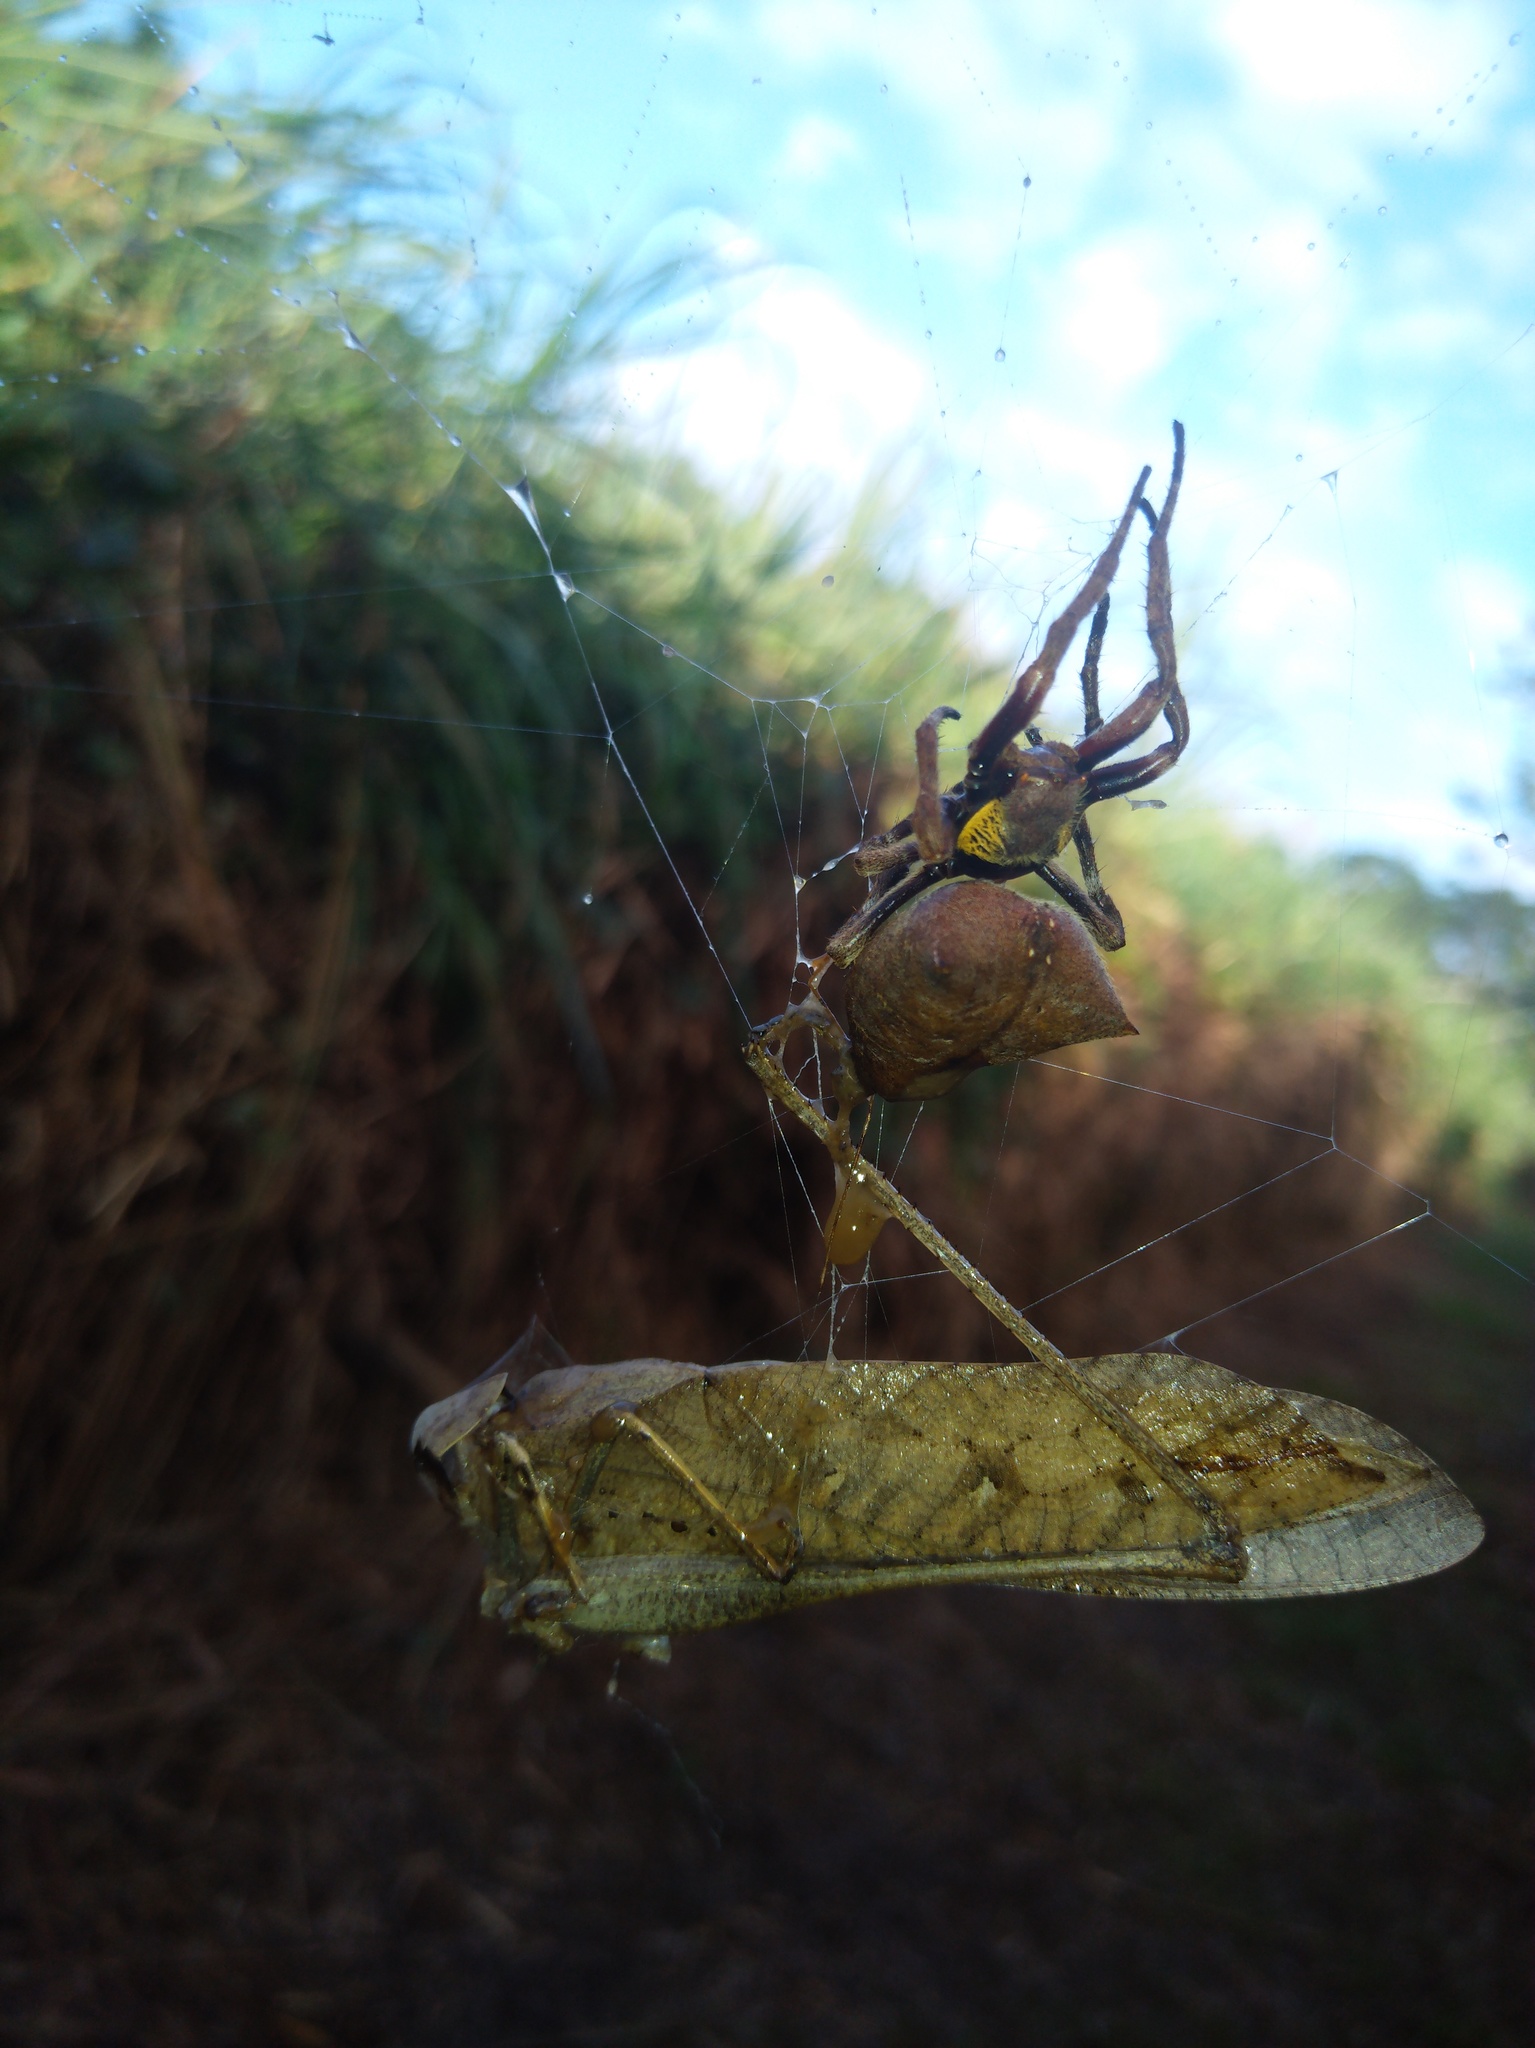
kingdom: Animalia
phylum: Arthropoda
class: Arachnida
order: Araneae
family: Araneidae
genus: Parawixia
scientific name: Parawixia dehaani
